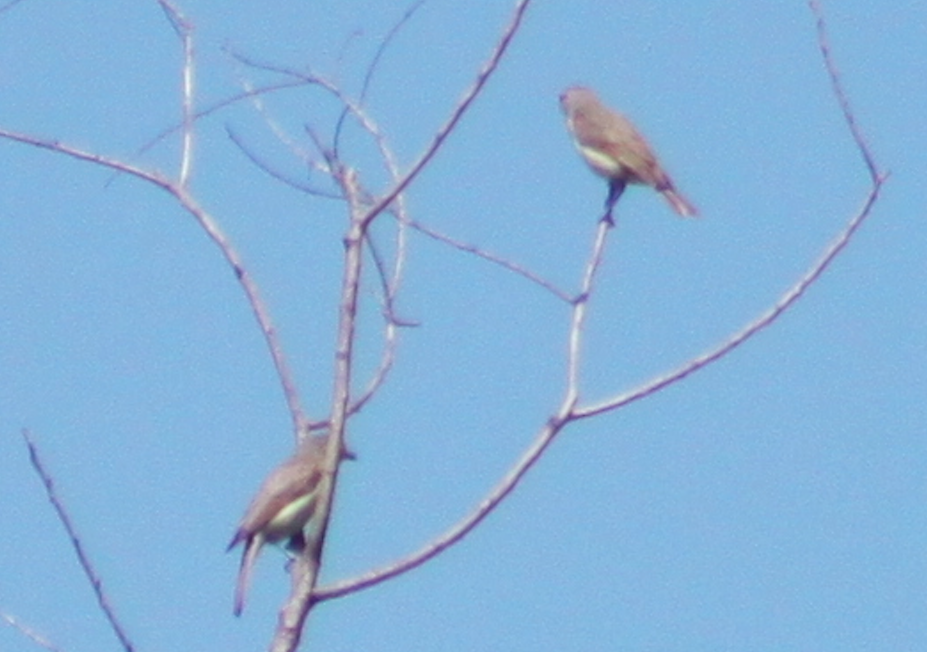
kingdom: Animalia
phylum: Chordata
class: Aves
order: Passeriformes
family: Vireonidae
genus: Vireo
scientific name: Vireo gilvus
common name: Warbling vireo
